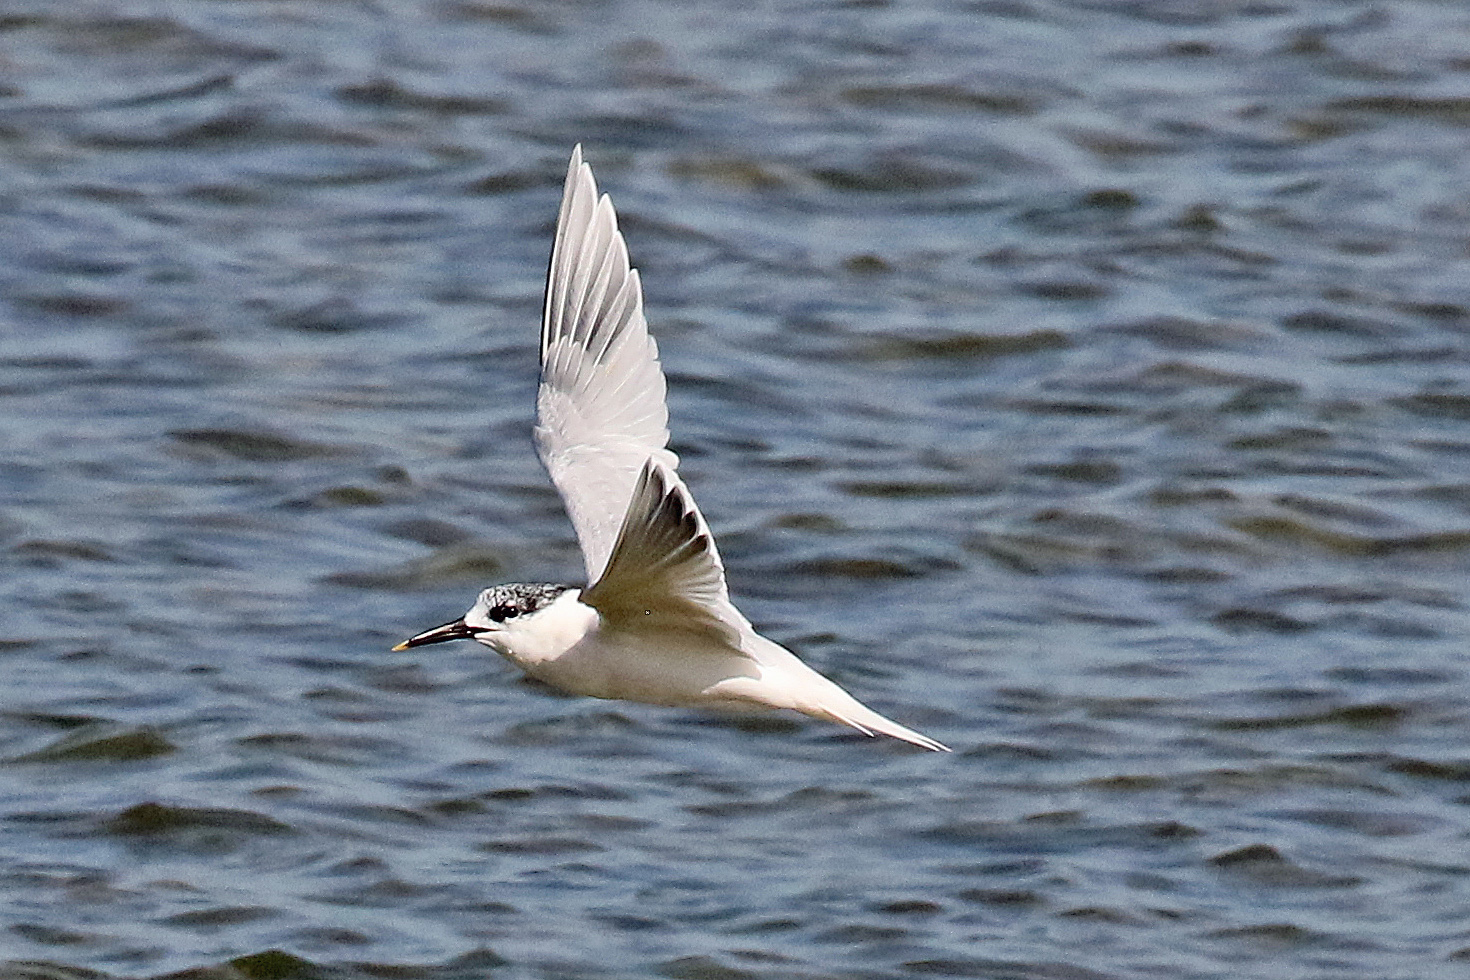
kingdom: Animalia
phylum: Chordata
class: Aves
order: Charadriiformes
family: Laridae
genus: Thalasseus
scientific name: Thalasseus sandvicensis
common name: Sandwich tern
